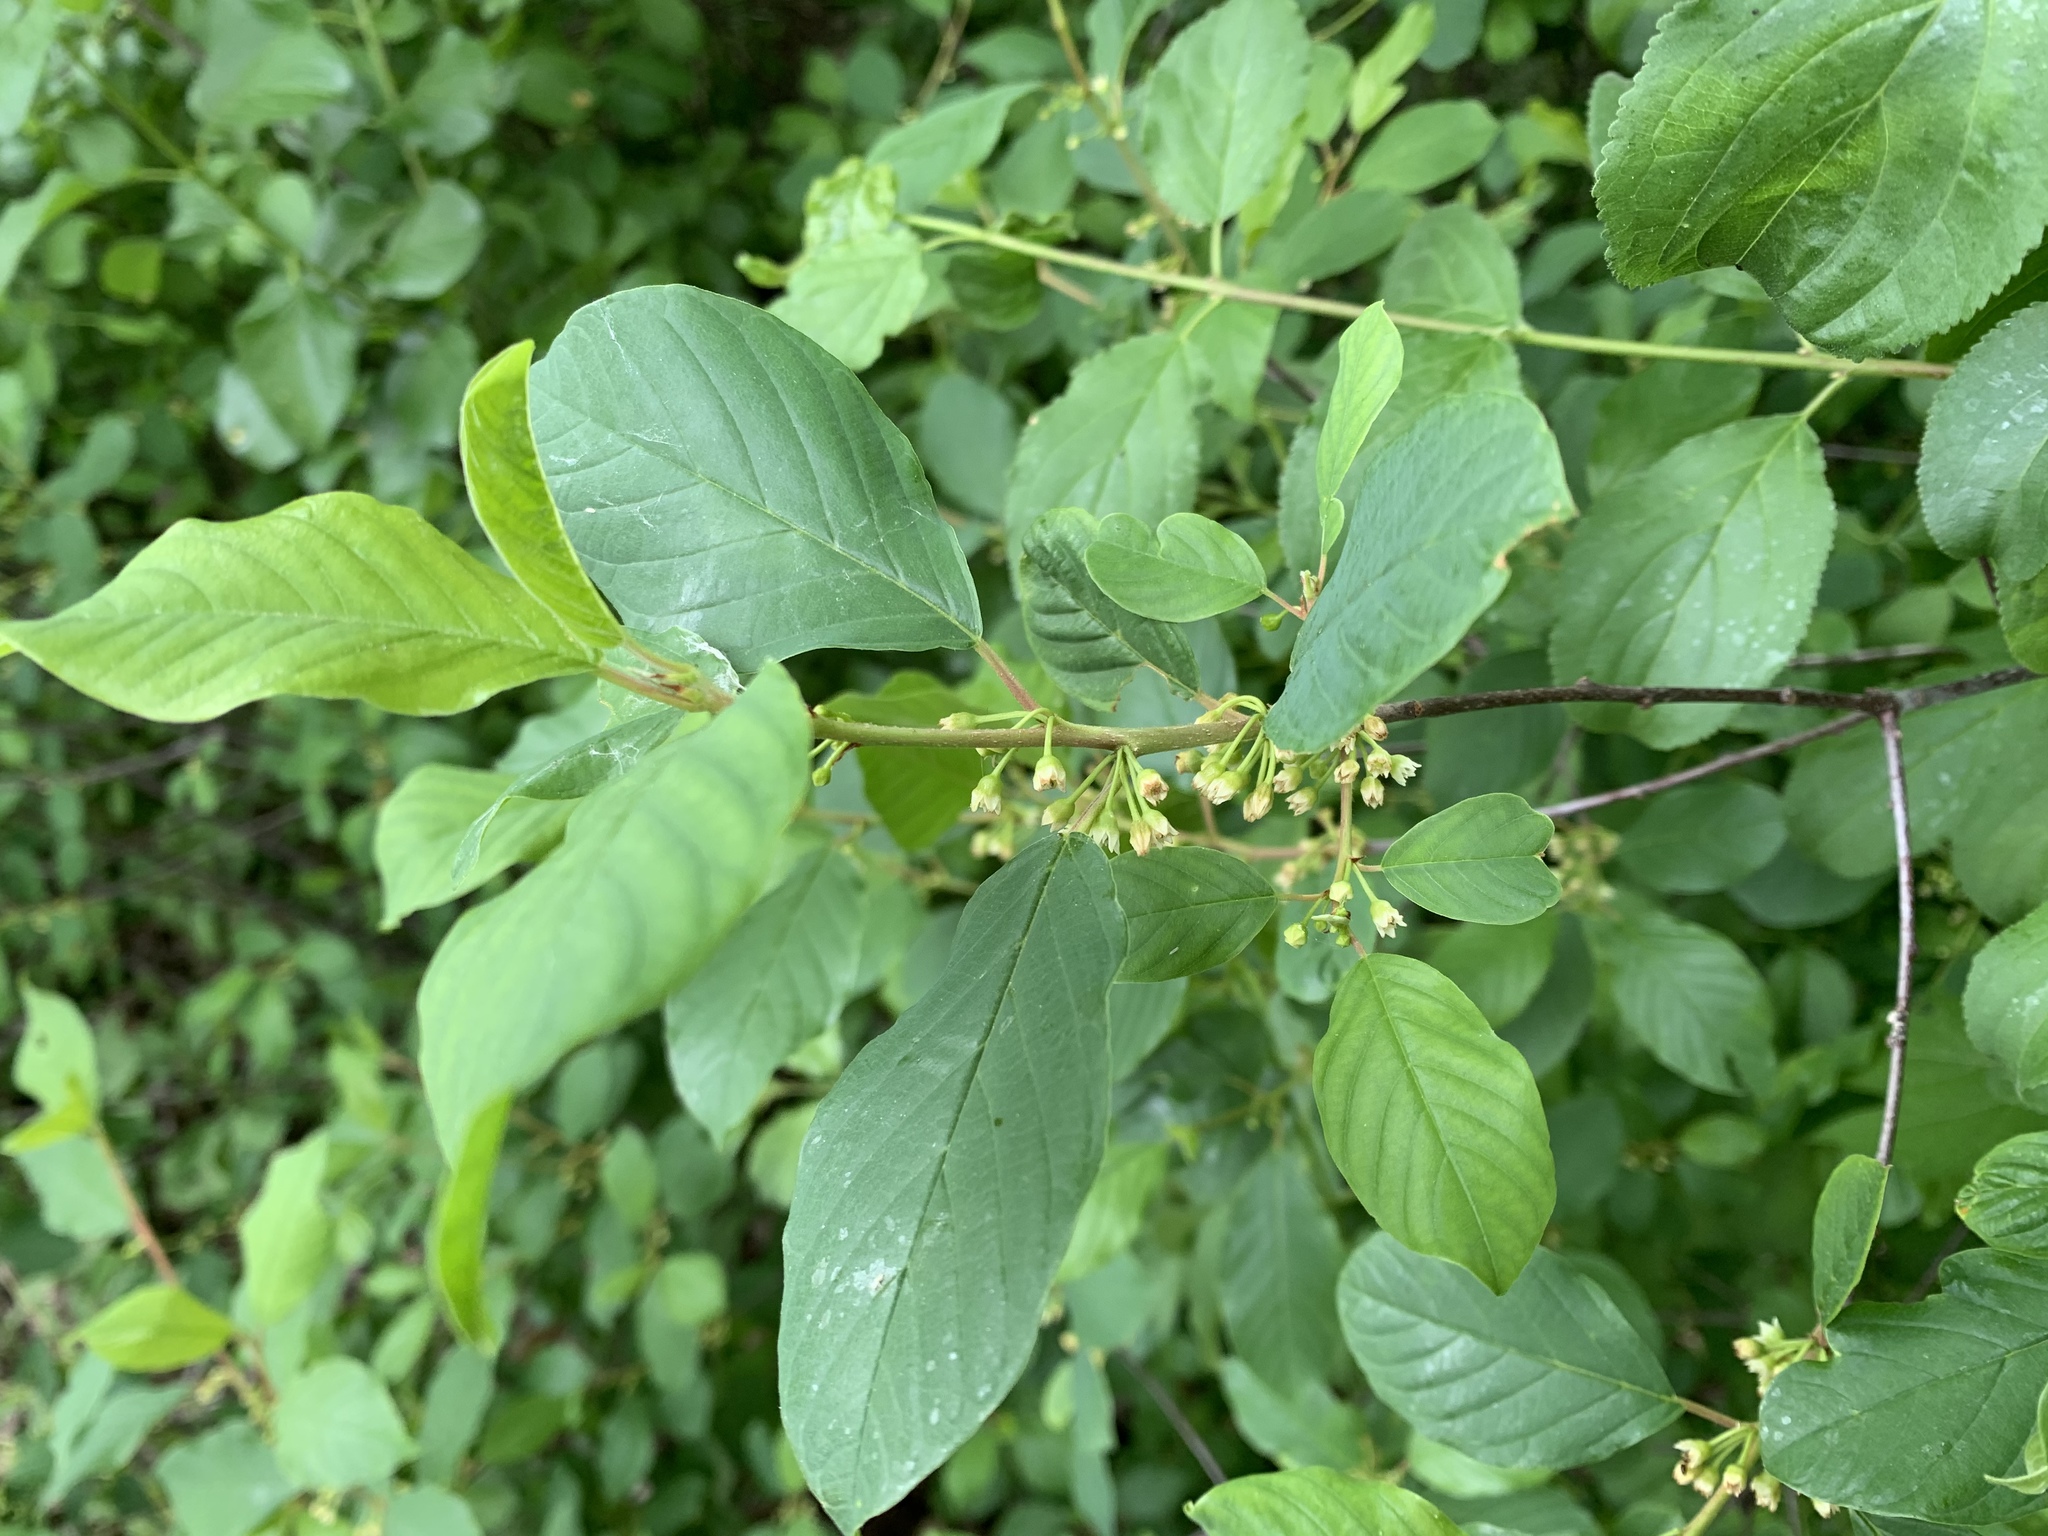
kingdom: Plantae
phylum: Tracheophyta
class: Magnoliopsida
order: Rosales
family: Rhamnaceae
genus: Frangula
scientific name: Frangula alnus
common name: Alder buckthorn
